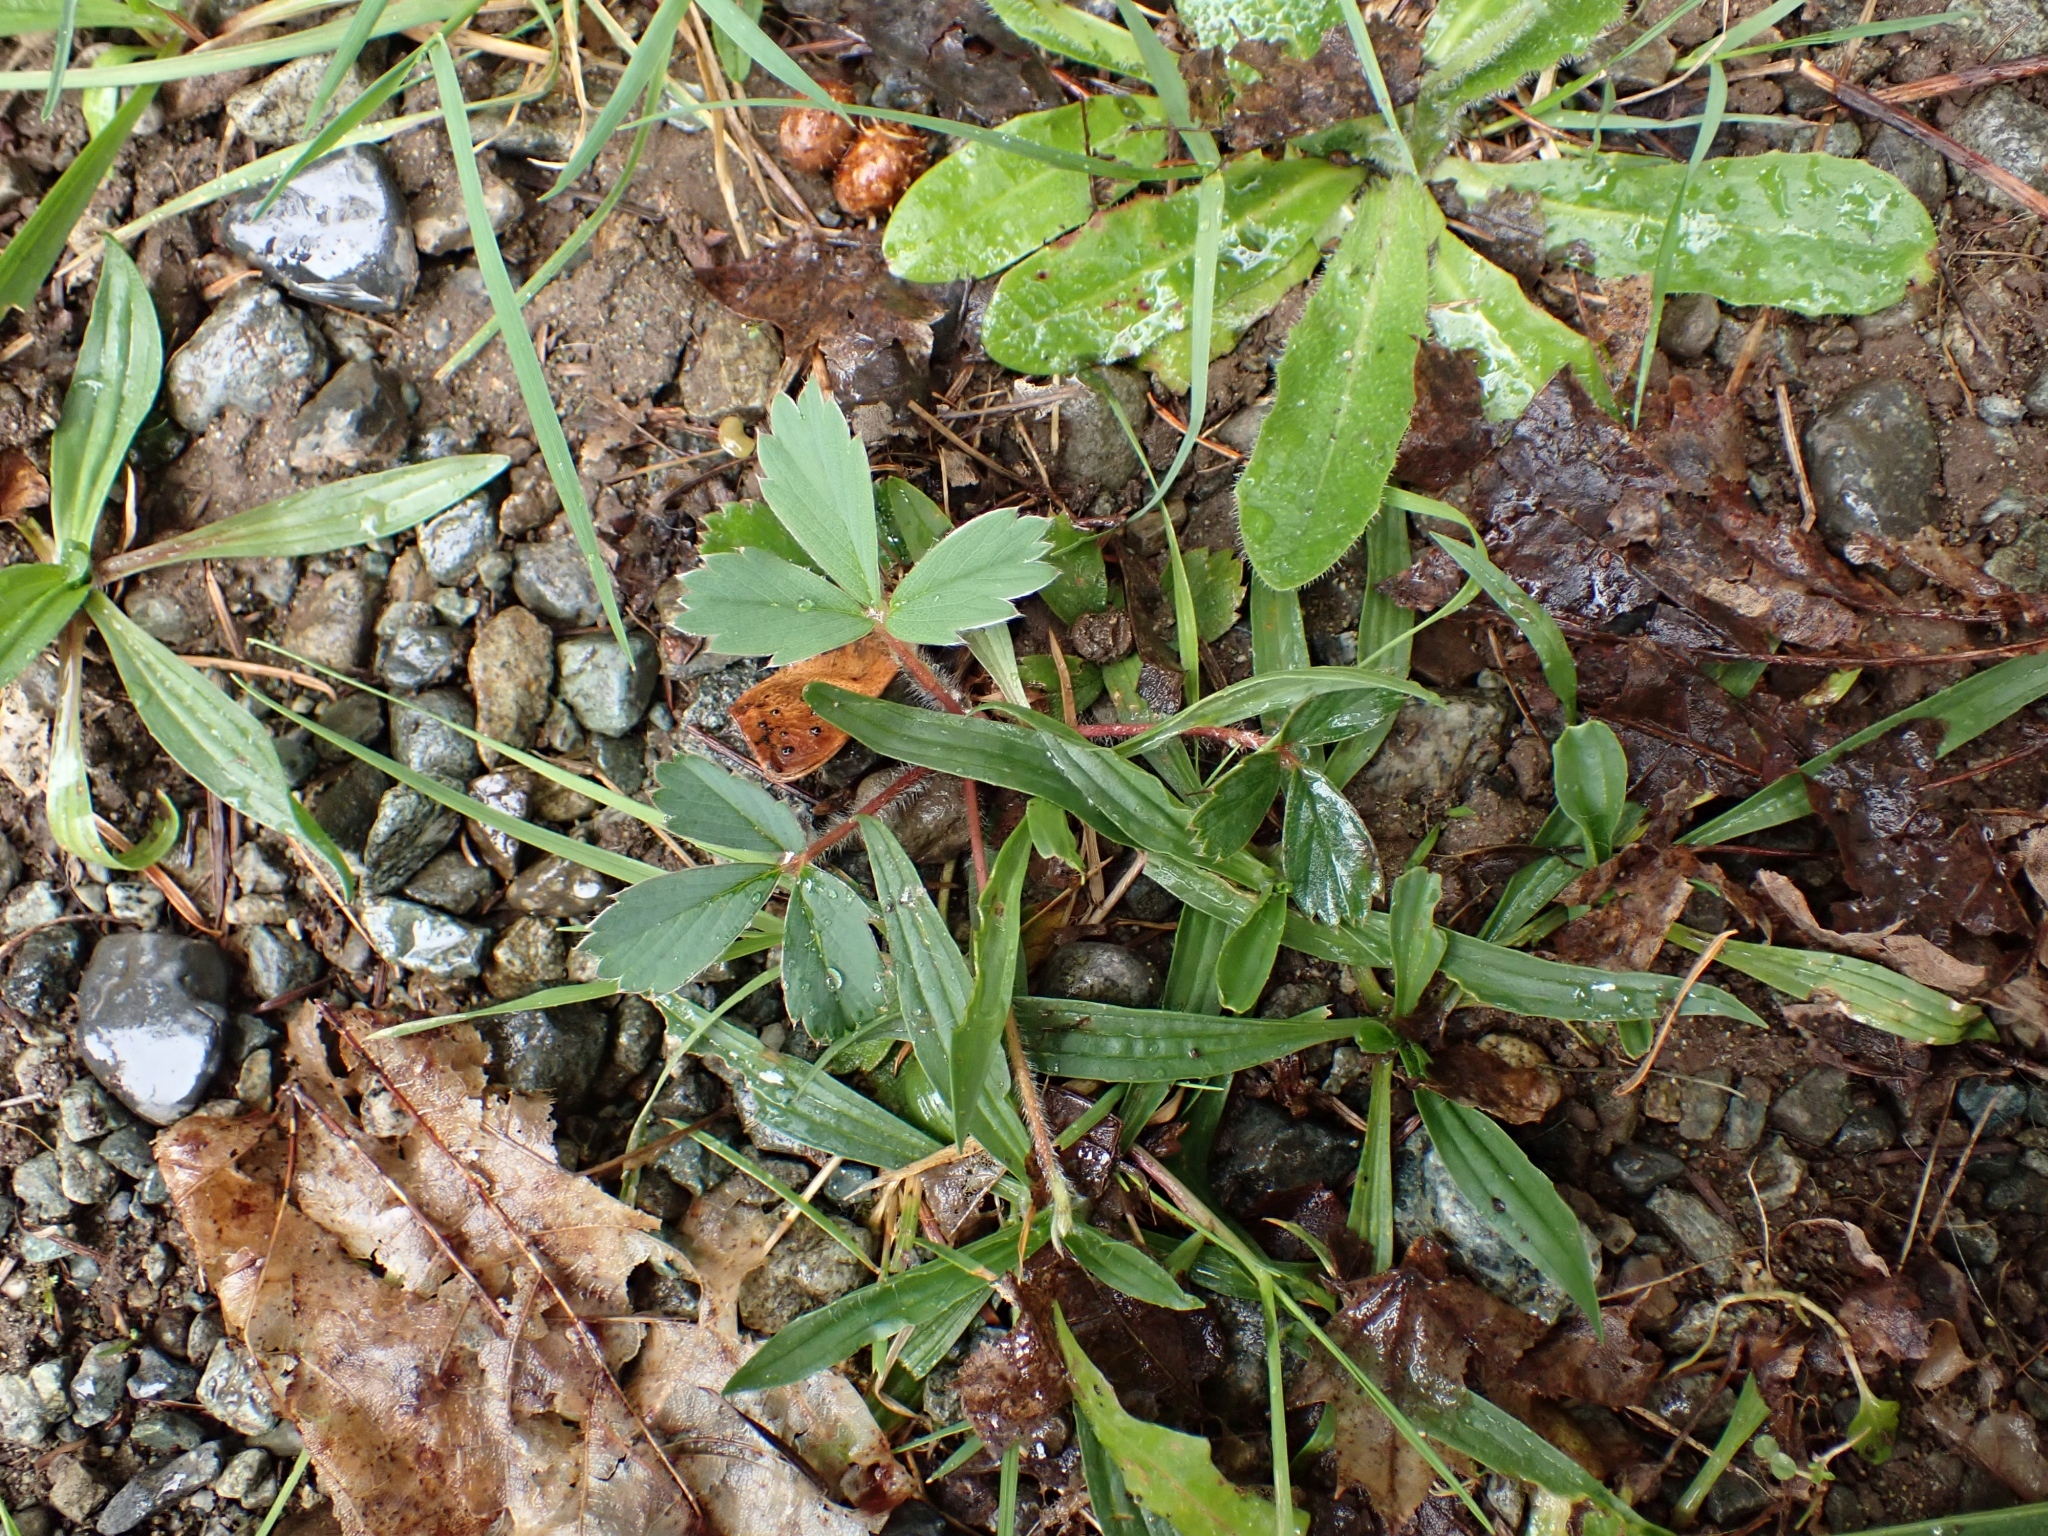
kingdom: Plantae
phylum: Tracheophyta
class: Magnoliopsida
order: Rosales
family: Rosaceae
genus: Fragaria
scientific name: Fragaria virginiana
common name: Thickleaved wild strawberry
